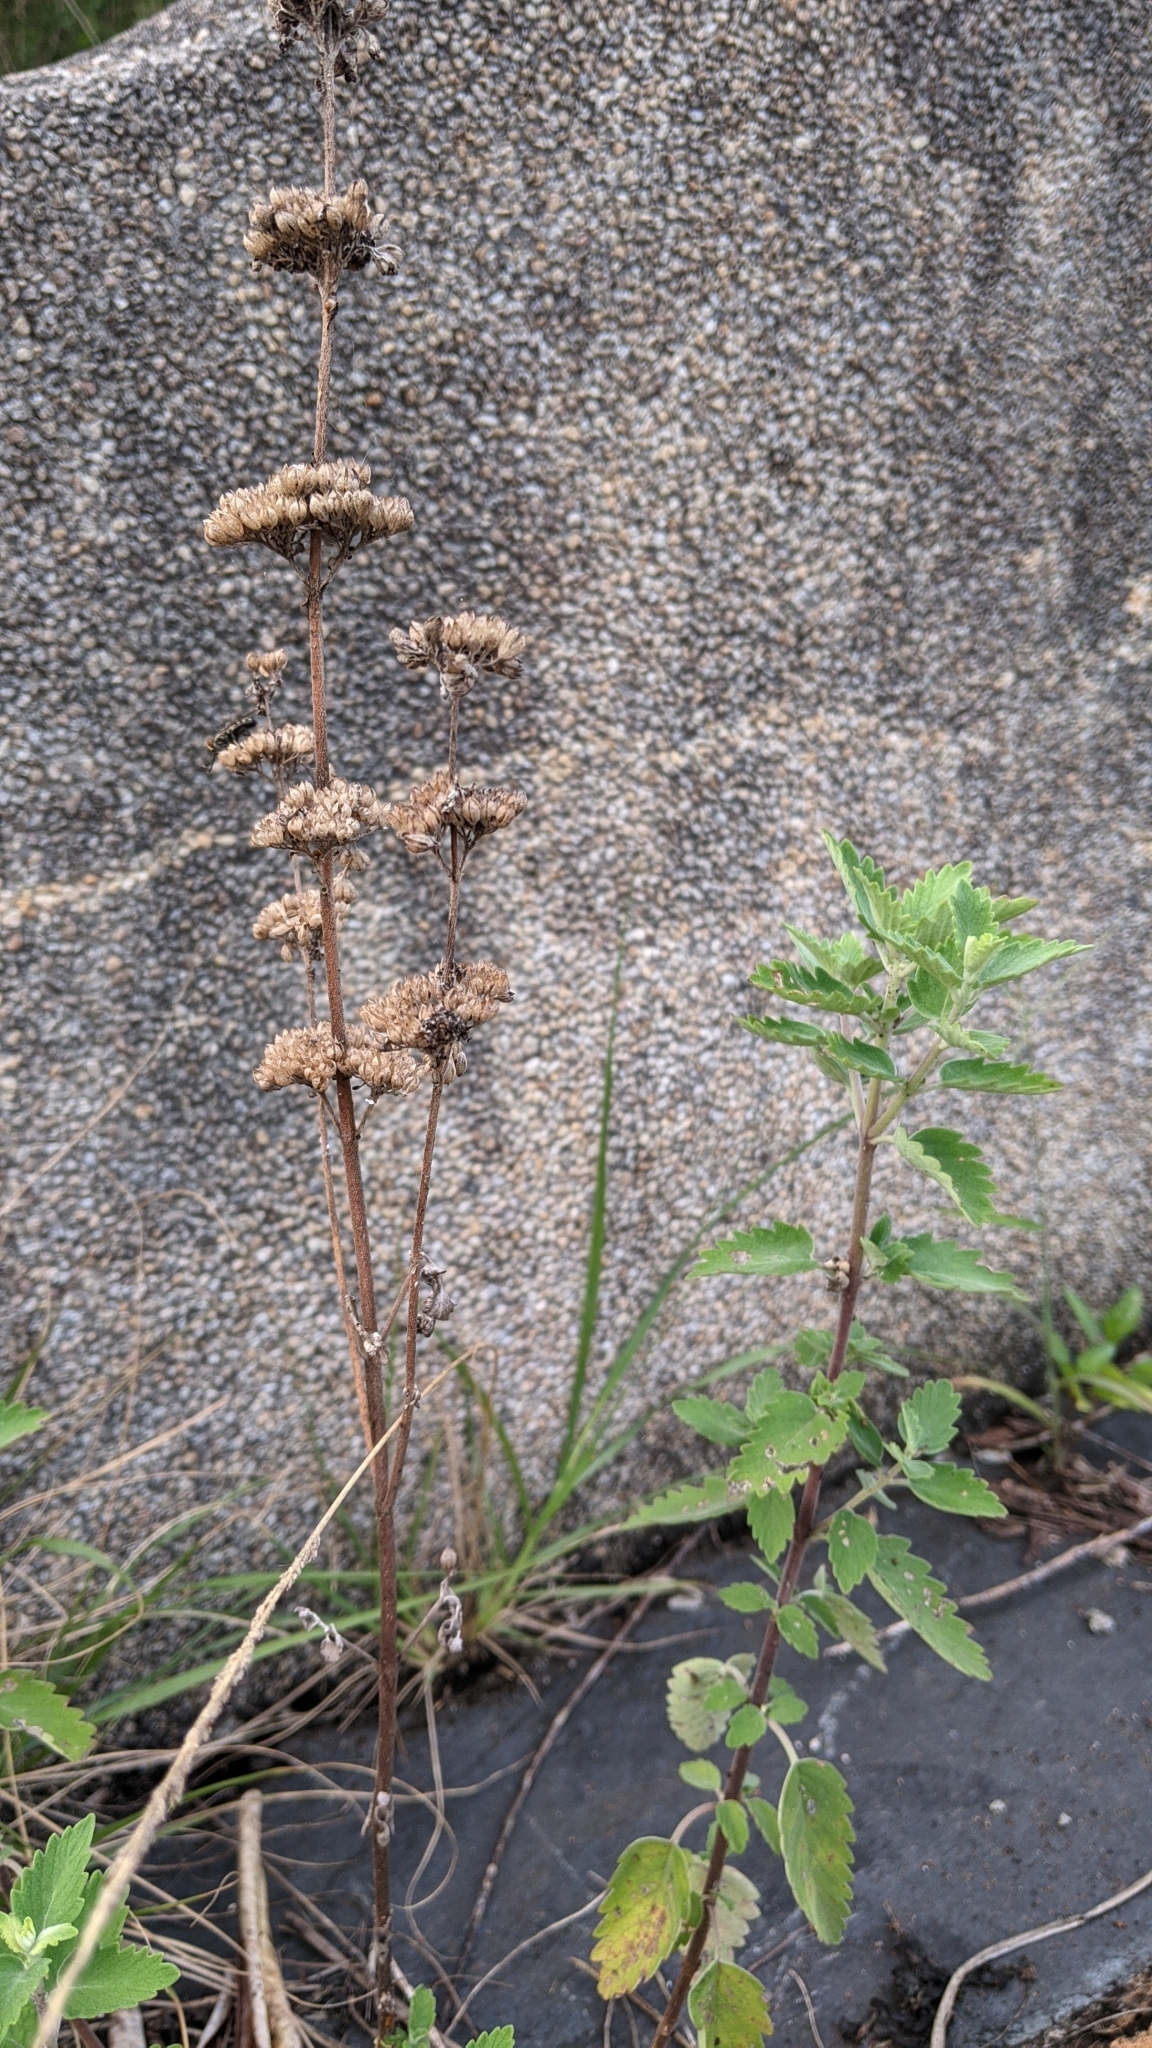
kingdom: Plantae
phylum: Tracheophyta
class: Magnoliopsida
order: Lamiales
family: Lamiaceae
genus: Caryopteris
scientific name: Caryopteris incana
